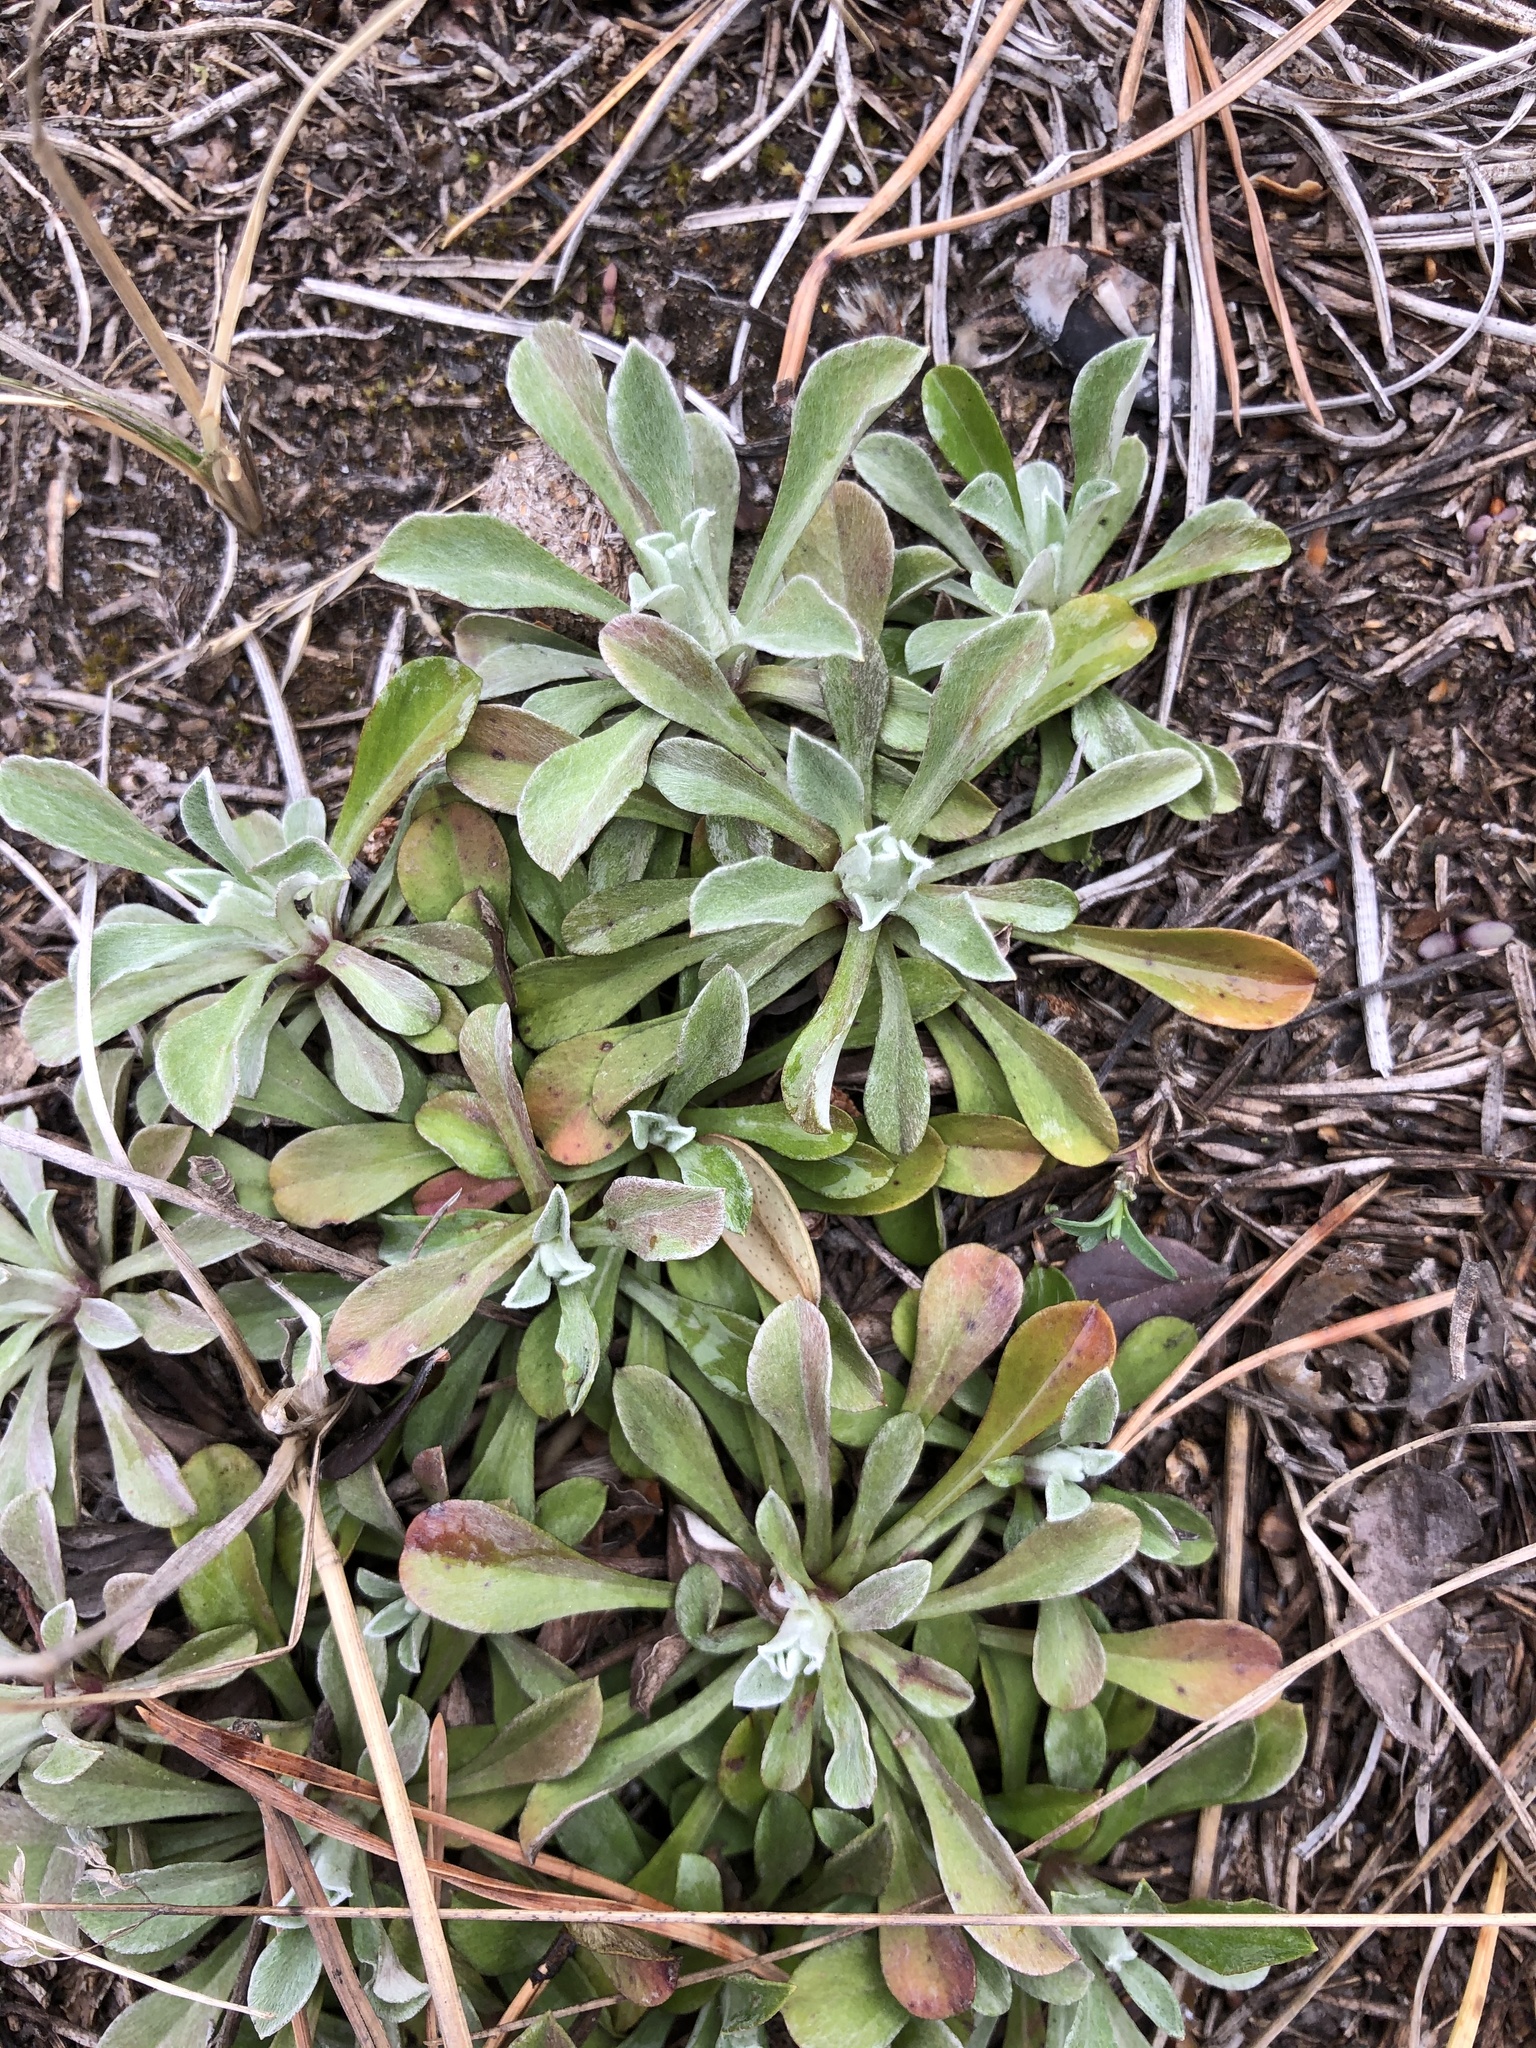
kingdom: Plantae
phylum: Tracheophyta
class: Magnoliopsida
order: Asterales
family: Asteraceae
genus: Antennaria
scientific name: Antennaria dioica
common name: Mountain everlasting
